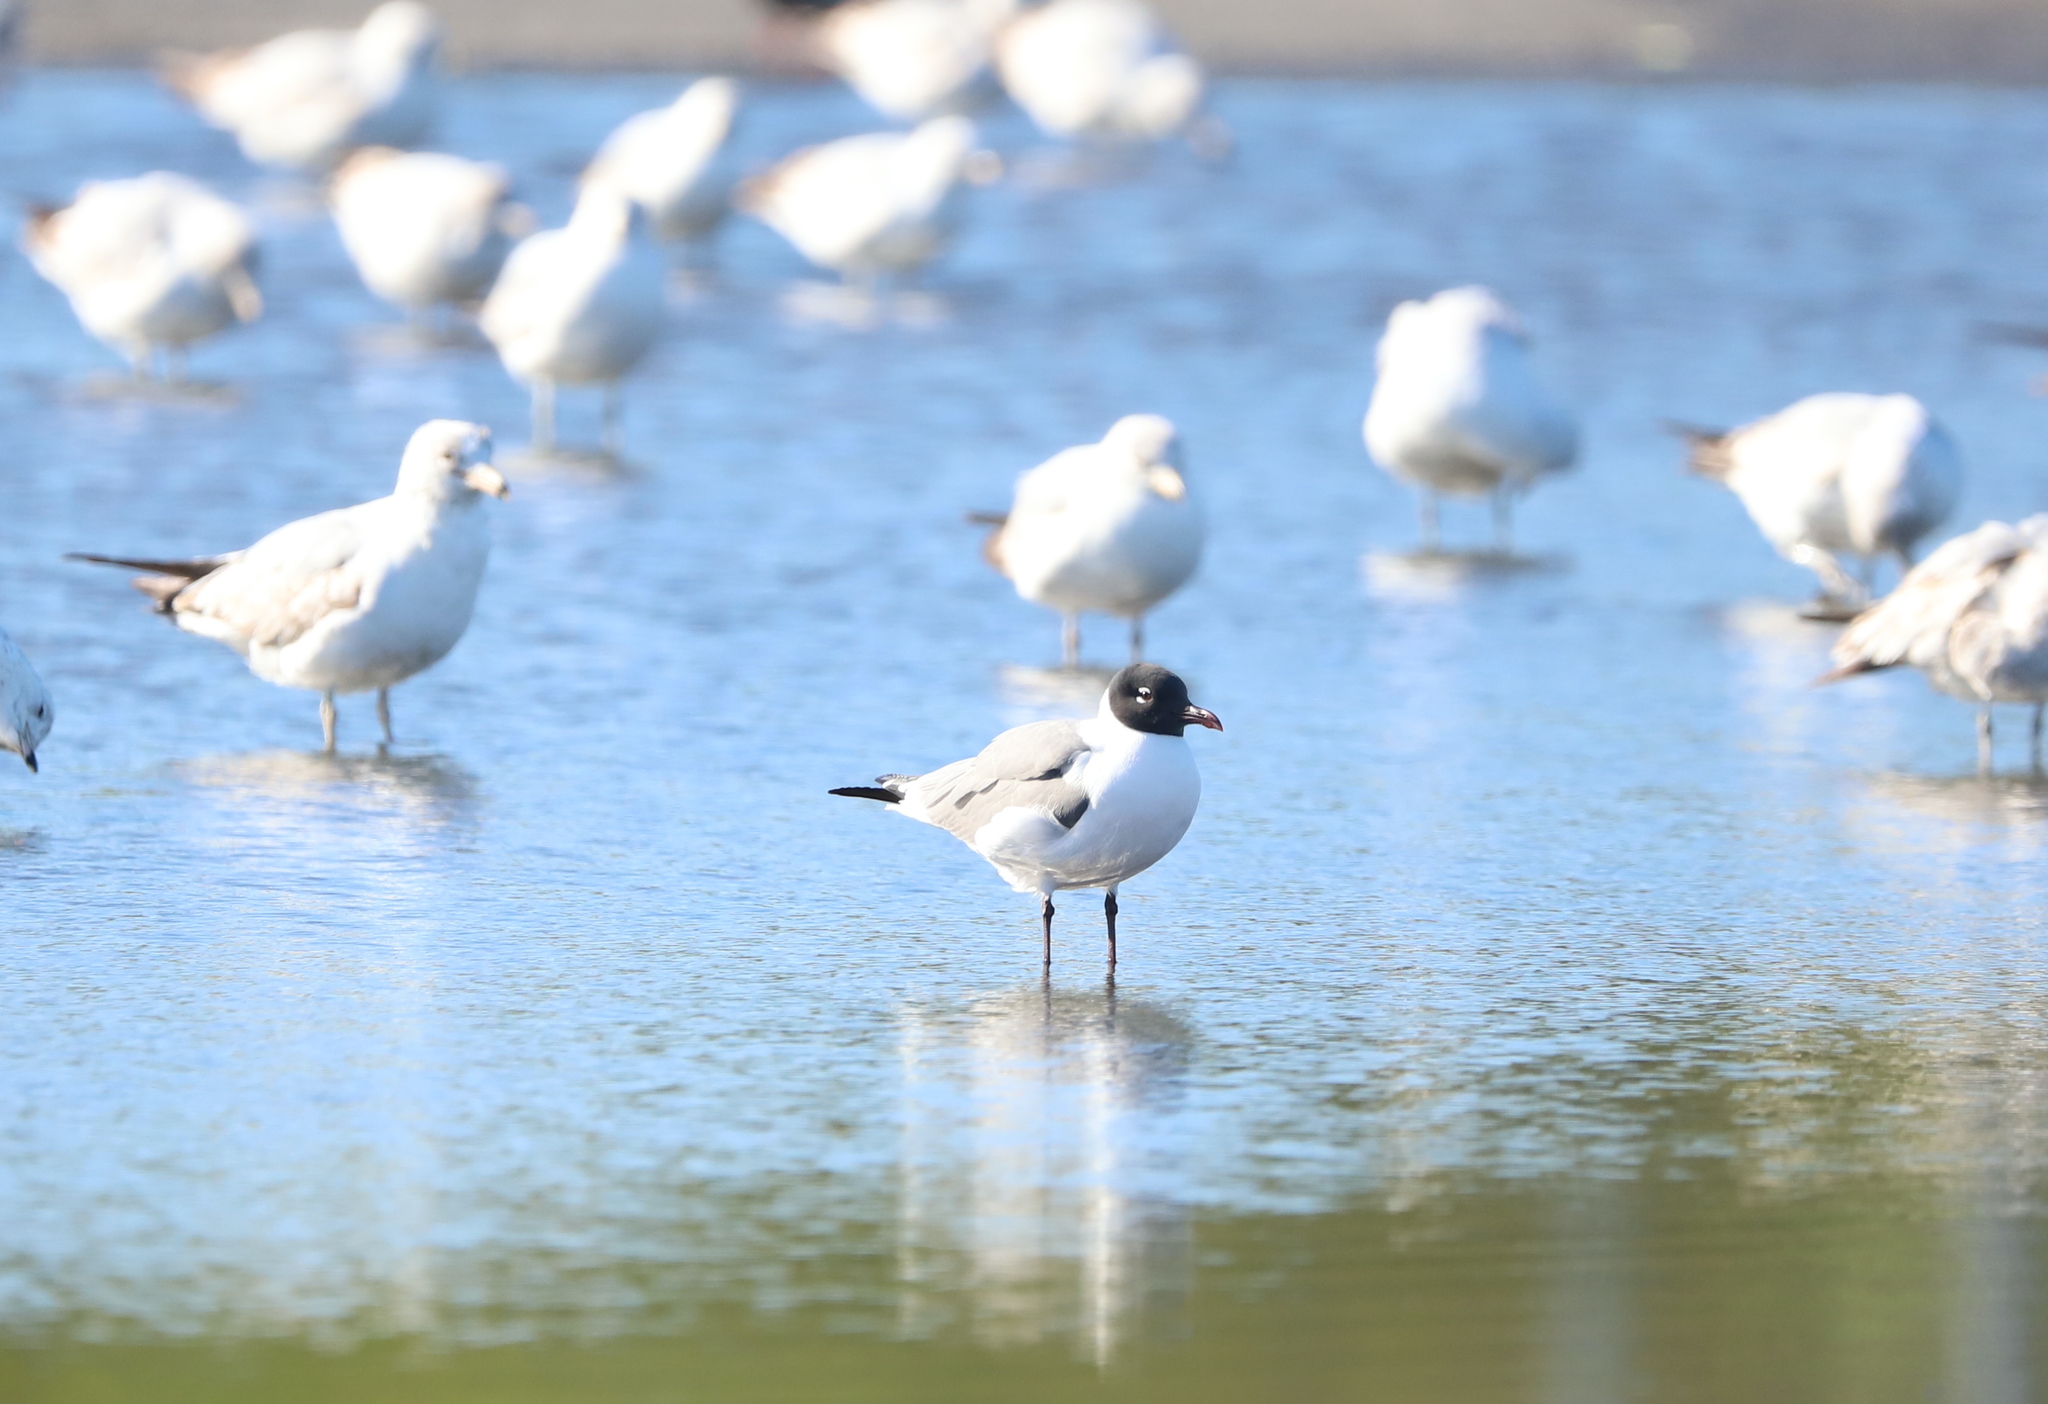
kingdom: Animalia
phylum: Chordata
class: Aves
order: Charadriiformes
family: Laridae
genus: Leucophaeus
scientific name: Leucophaeus atricilla
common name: Laughing gull
